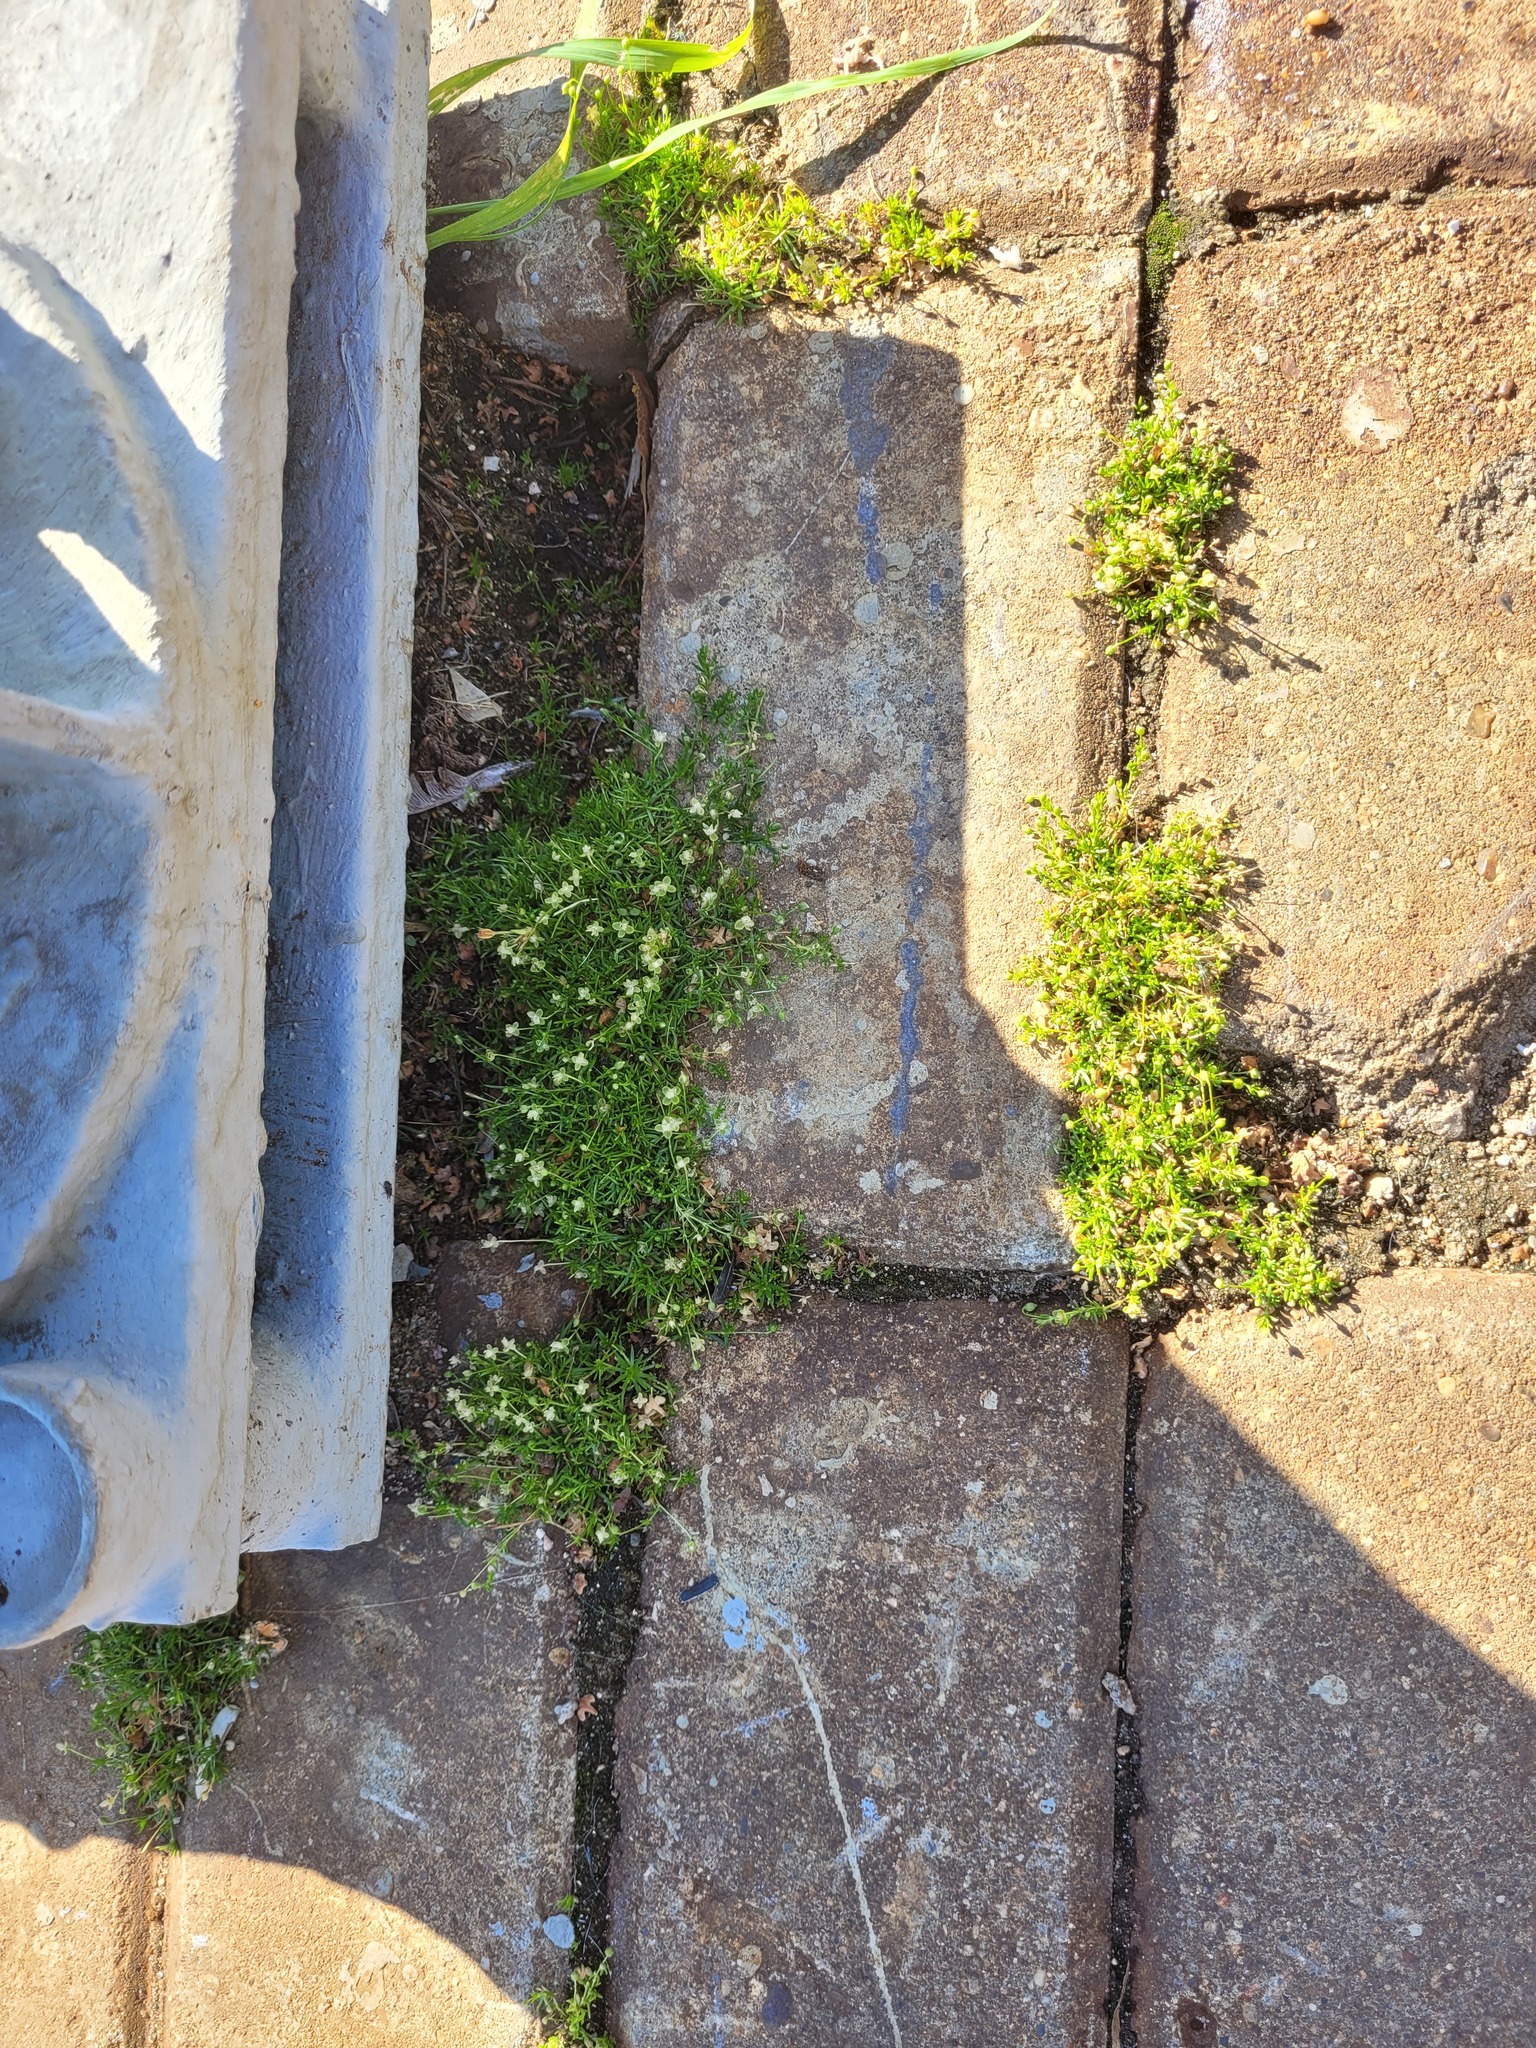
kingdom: Plantae
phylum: Tracheophyta
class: Magnoliopsida
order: Caryophyllales
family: Caryophyllaceae
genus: Sagina
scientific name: Sagina procumbens
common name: Procumbent pearlwort
